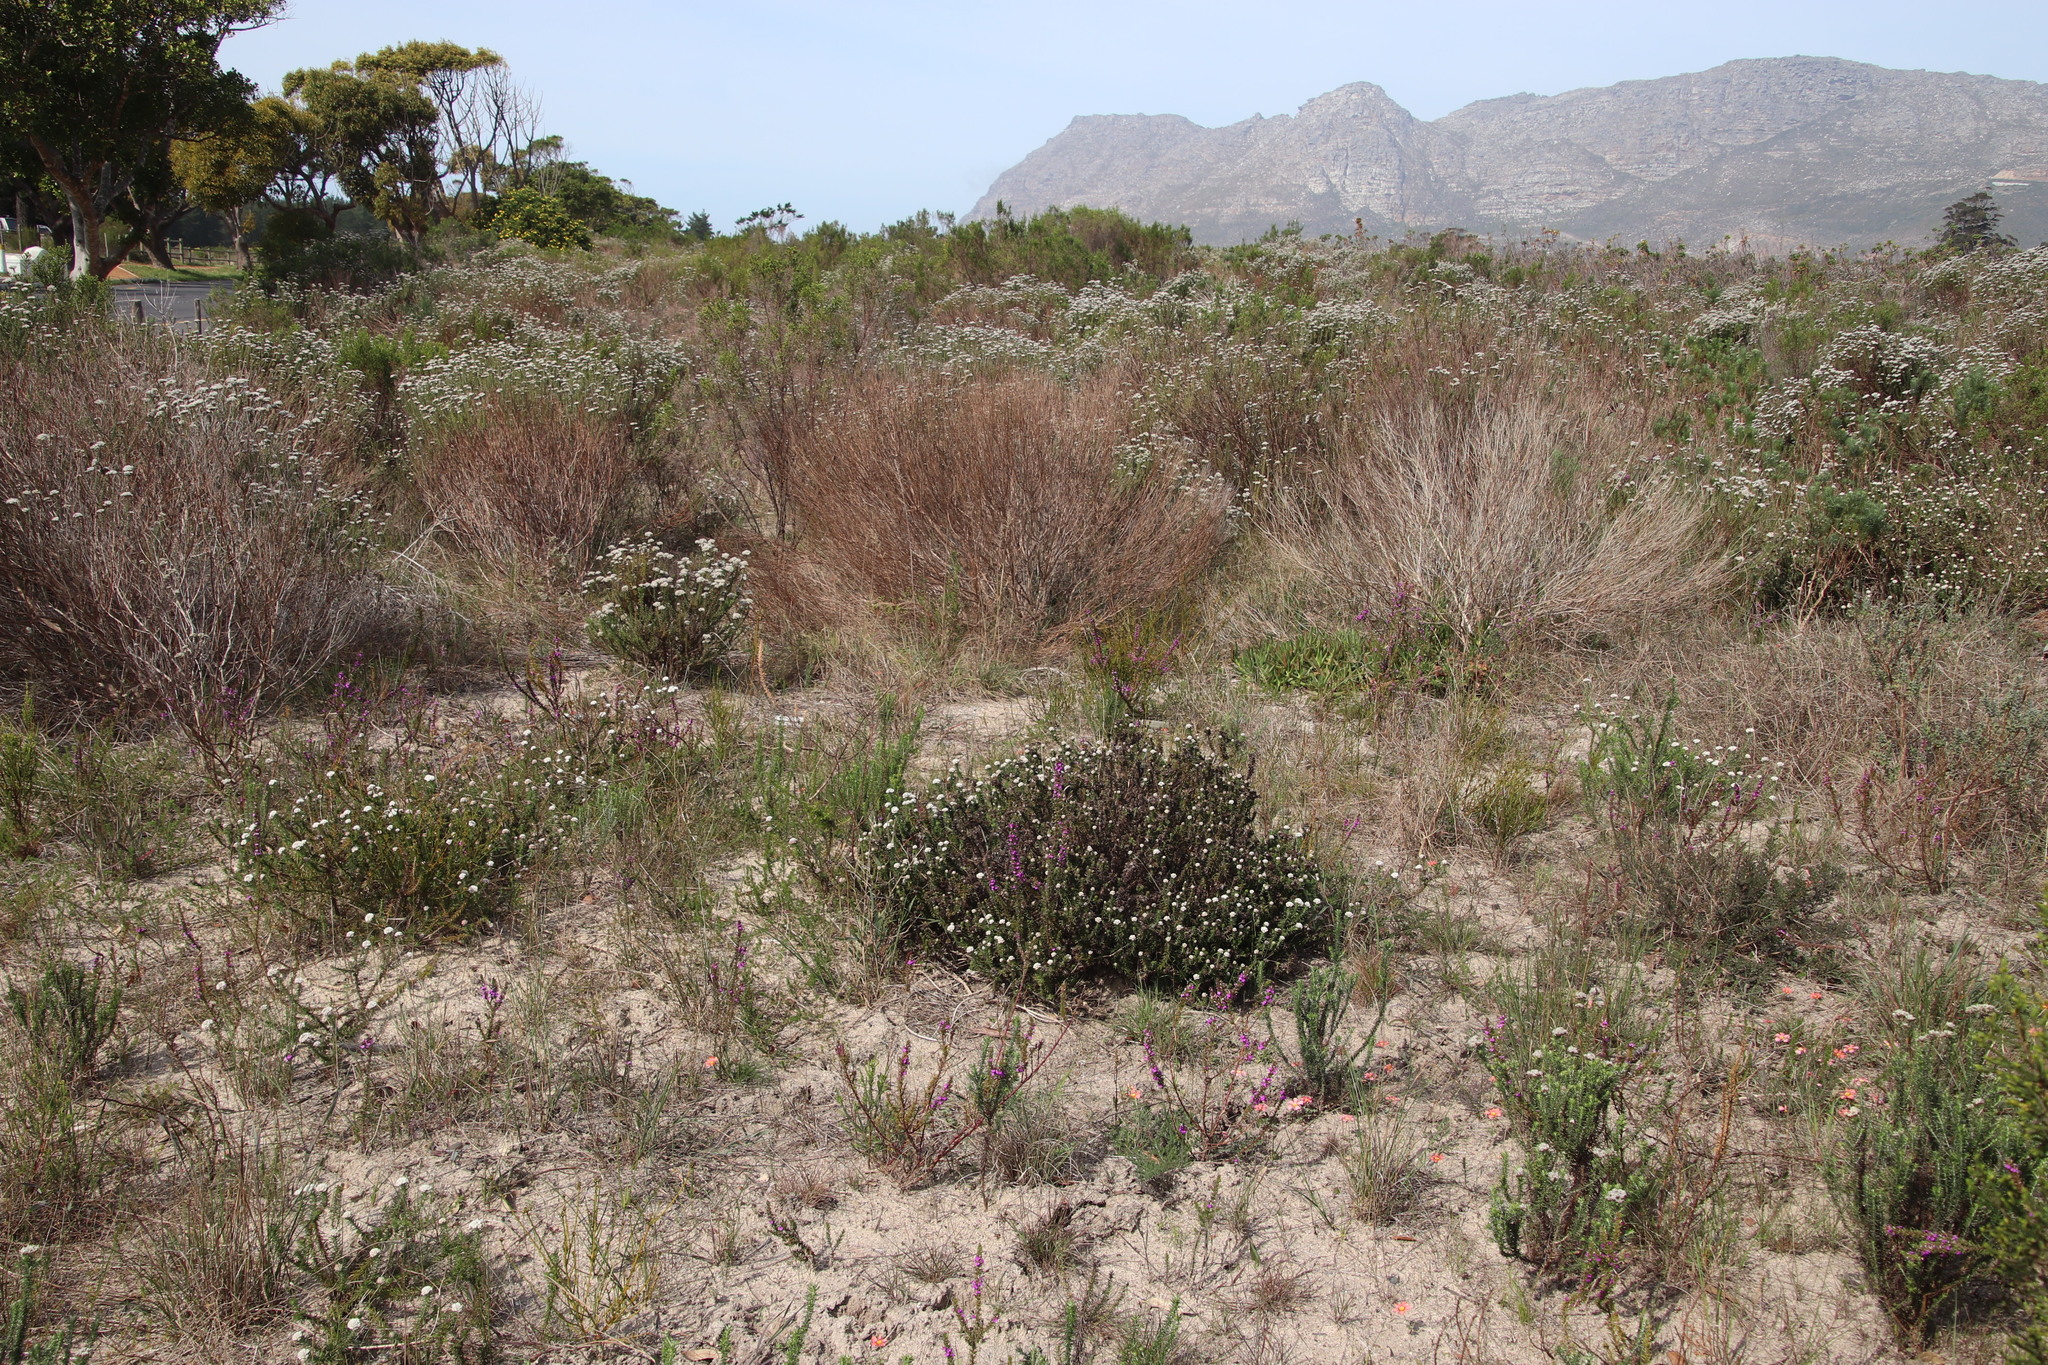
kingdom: Plantae
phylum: Tracheophyta
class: Magnoliopsida
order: Asterales
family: Asteraceae
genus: Metalasia
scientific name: Metalasia pulchella
